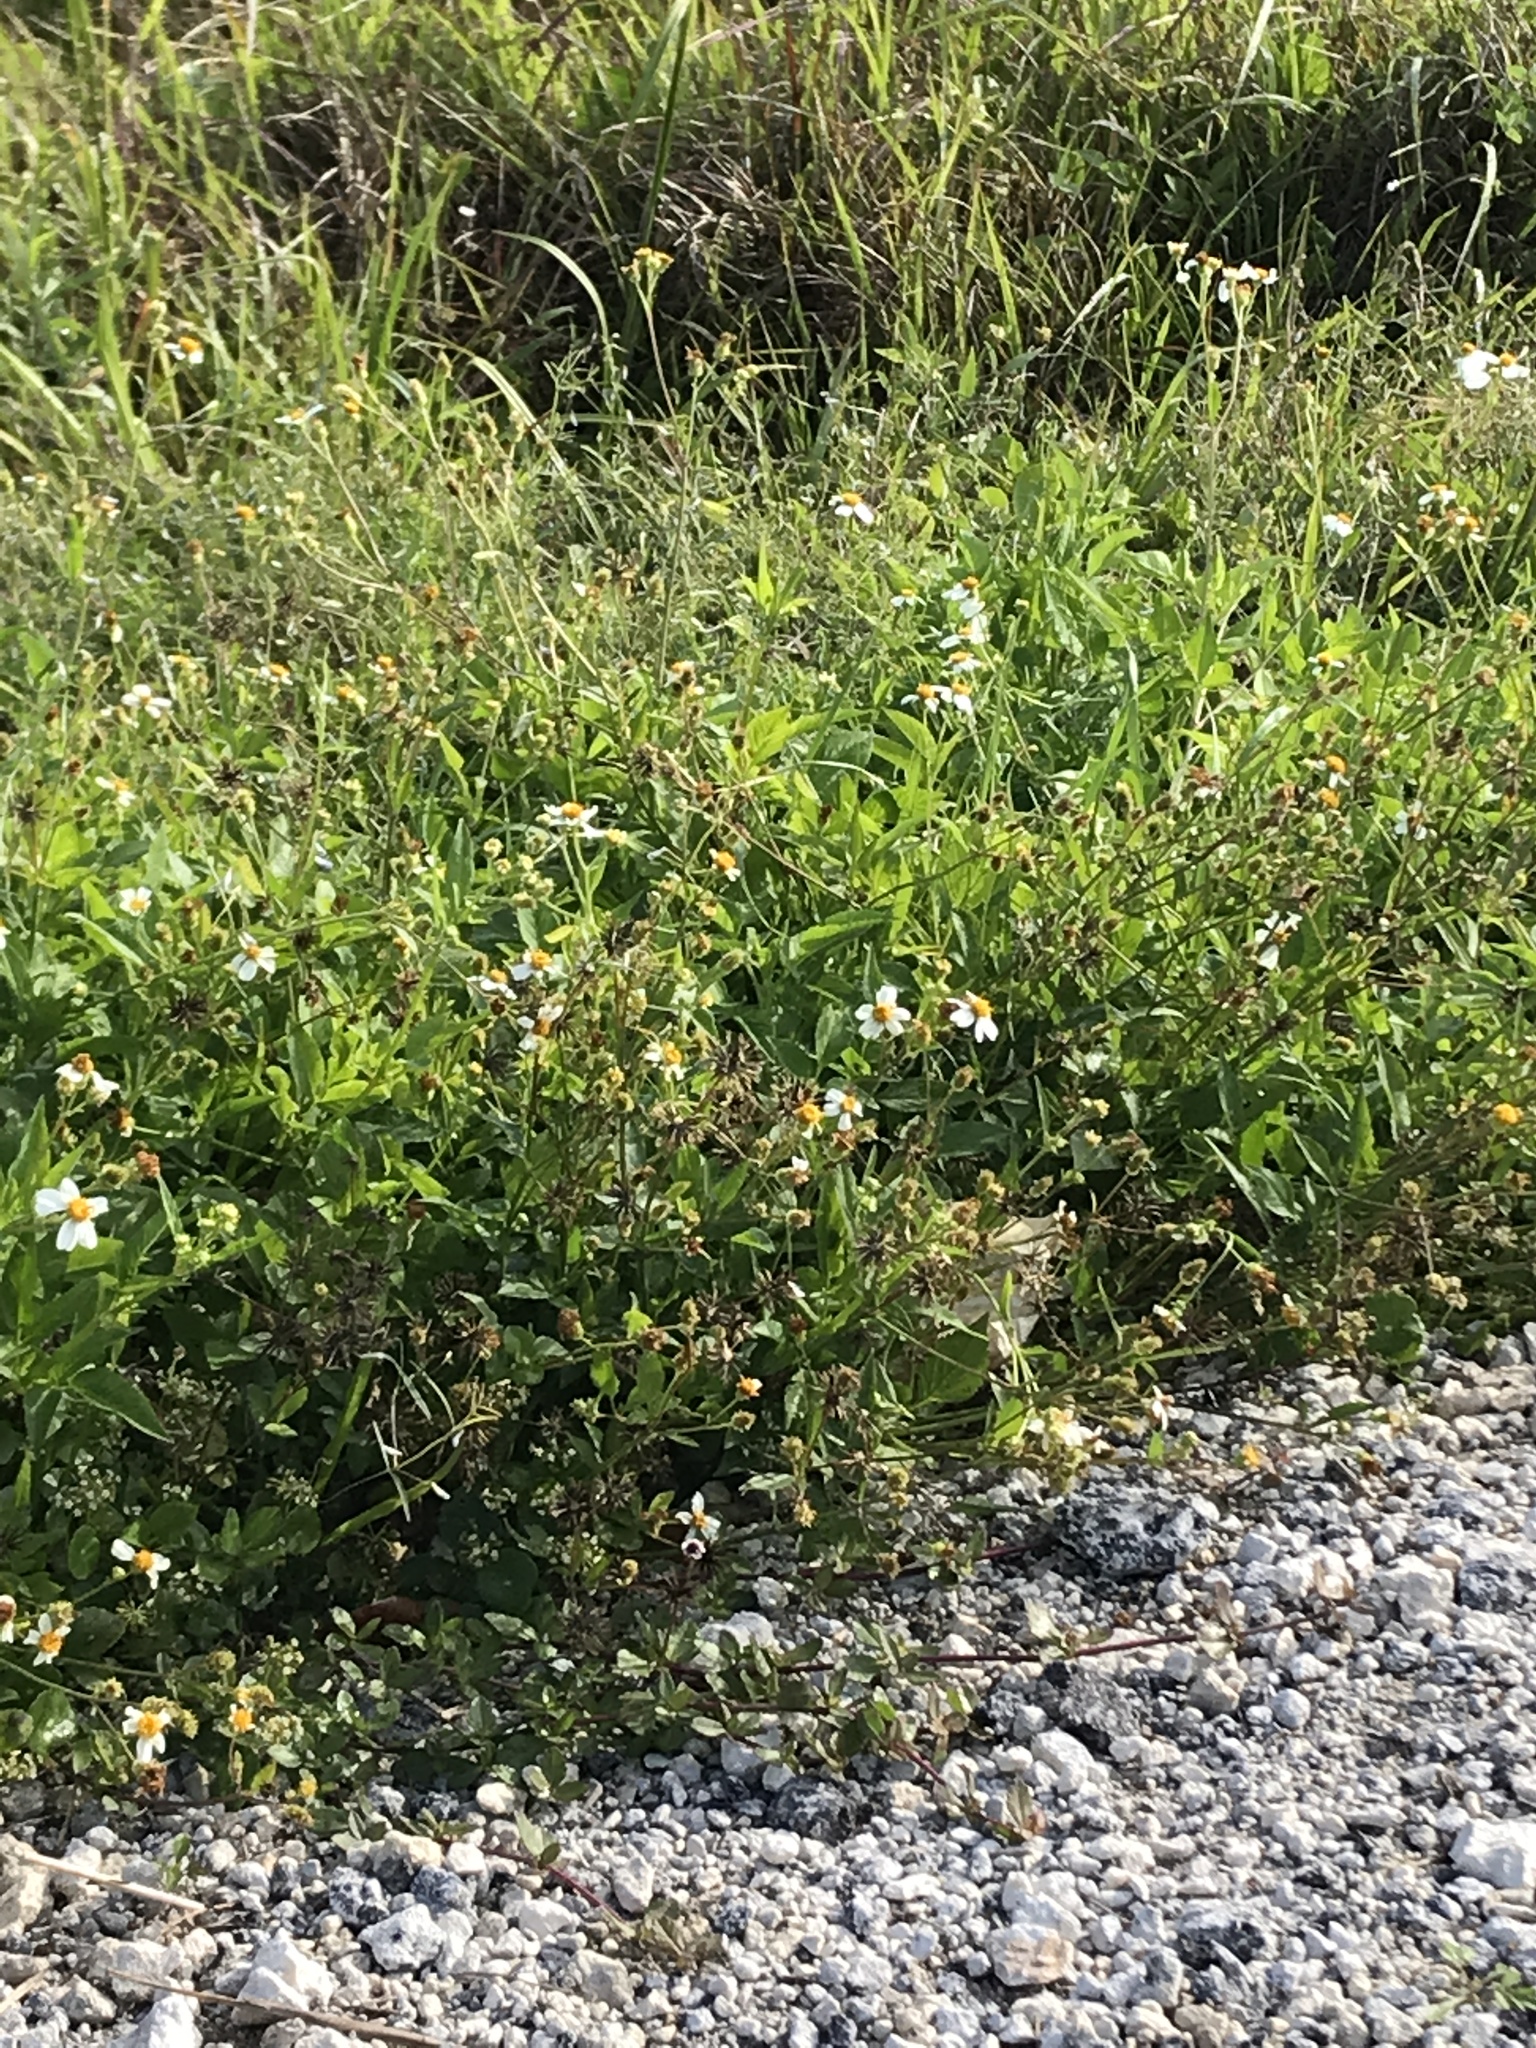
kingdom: Plantae
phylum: Tracheophyta
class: Magnoliopsida
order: Asterales
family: Asteraceae
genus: Bidens
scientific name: Bidens alba
